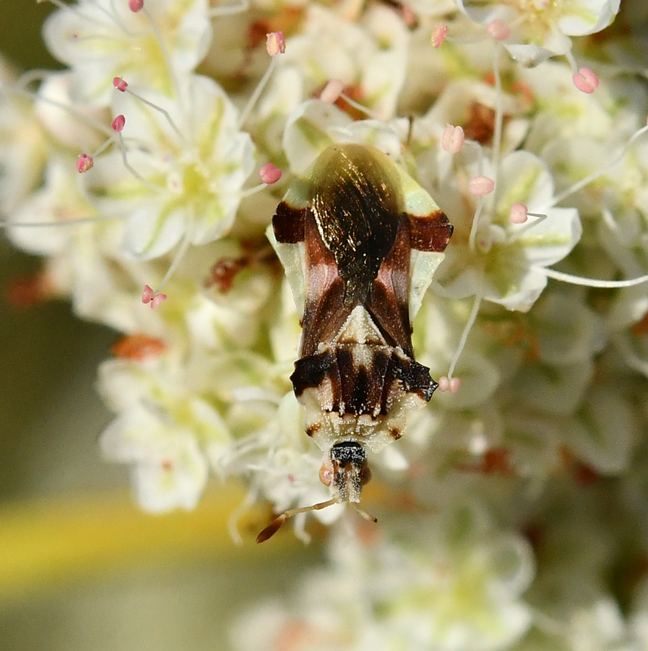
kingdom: Animalia
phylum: Arthropoda
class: Insecta
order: Hemiptera
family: Reduviidae
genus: Phymata
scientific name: Phymata pacifica
